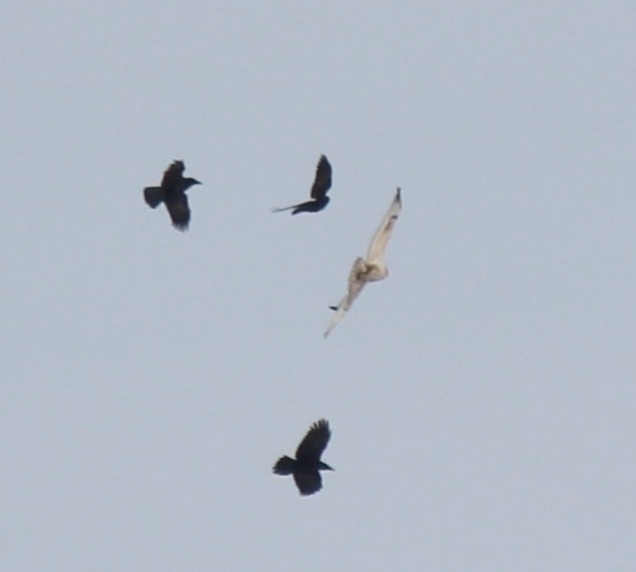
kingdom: Animalia
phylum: Chordata
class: Aves
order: Accipitriformes
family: Accipitridae
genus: Buteo
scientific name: Buteo hemilasius
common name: Upland buzzard
